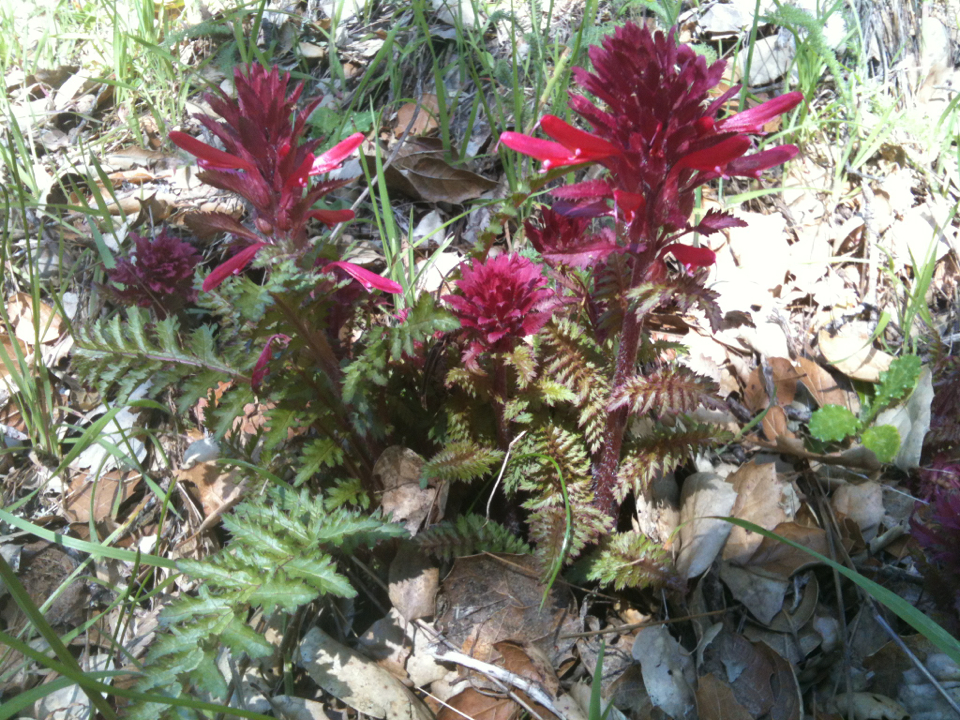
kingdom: Plantae
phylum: Tracheophyta
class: Magnoliopsida
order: Lamiales
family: Orobanchaceae
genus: Pedicularis
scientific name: Pedicularis densiflora
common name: Indian warrior
